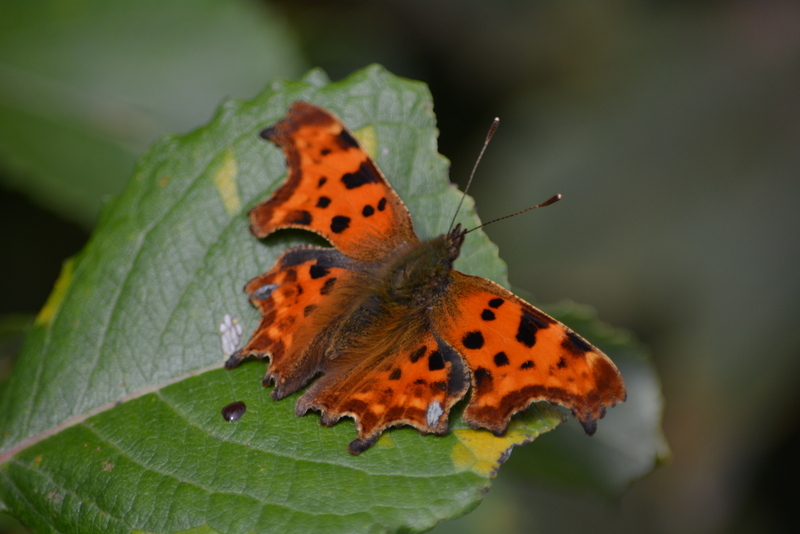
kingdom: Animalia
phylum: Arthropoda
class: Insecta
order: Lepidoptera
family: Nymphalidae
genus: Polygonia
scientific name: Polygonia c-album
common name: Comma
